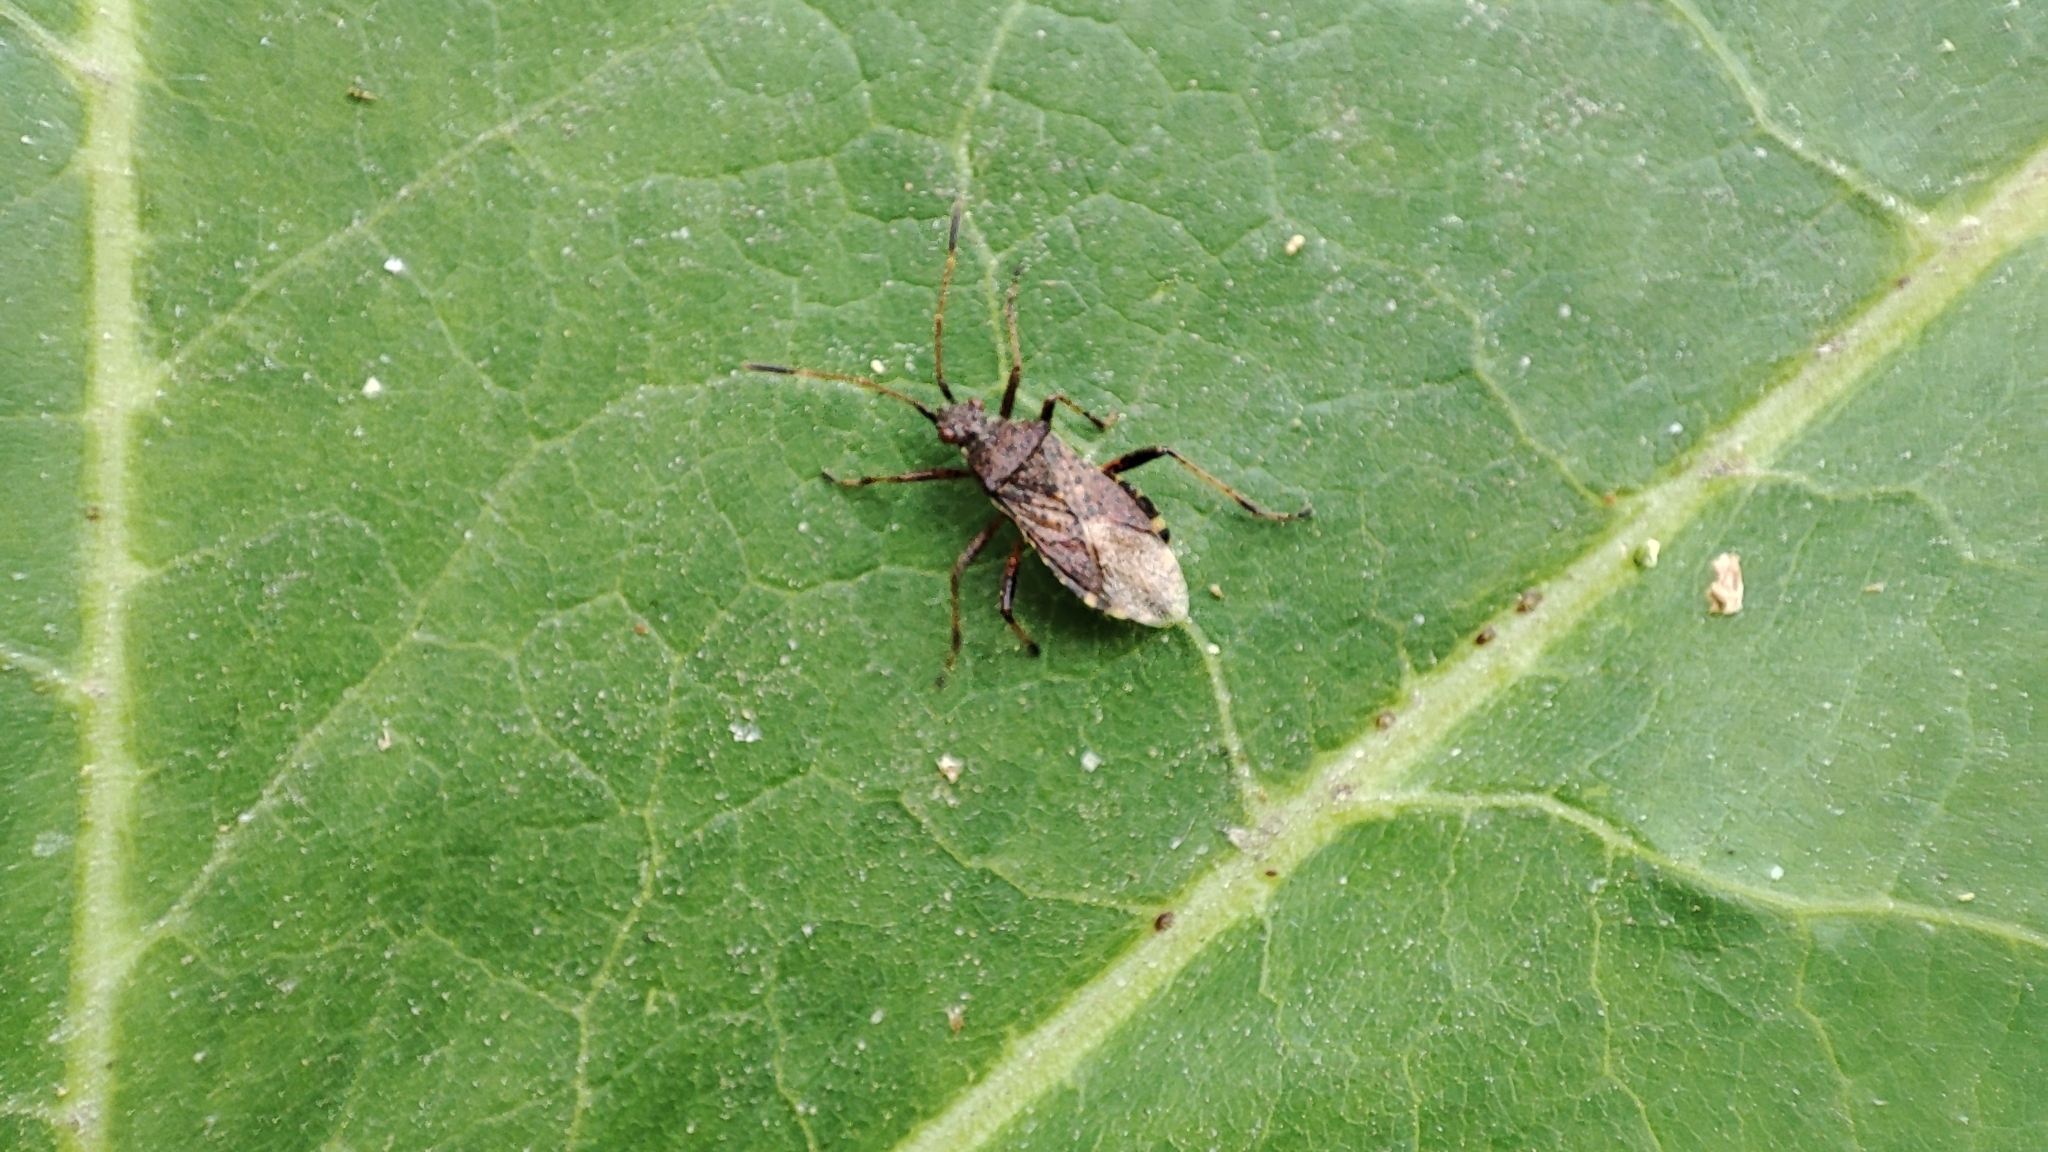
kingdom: Animalia
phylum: Arthropoda
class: Insecta
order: Hemiptera
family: Rhopalidae
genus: Rhopalus
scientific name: Rhopalus latus
